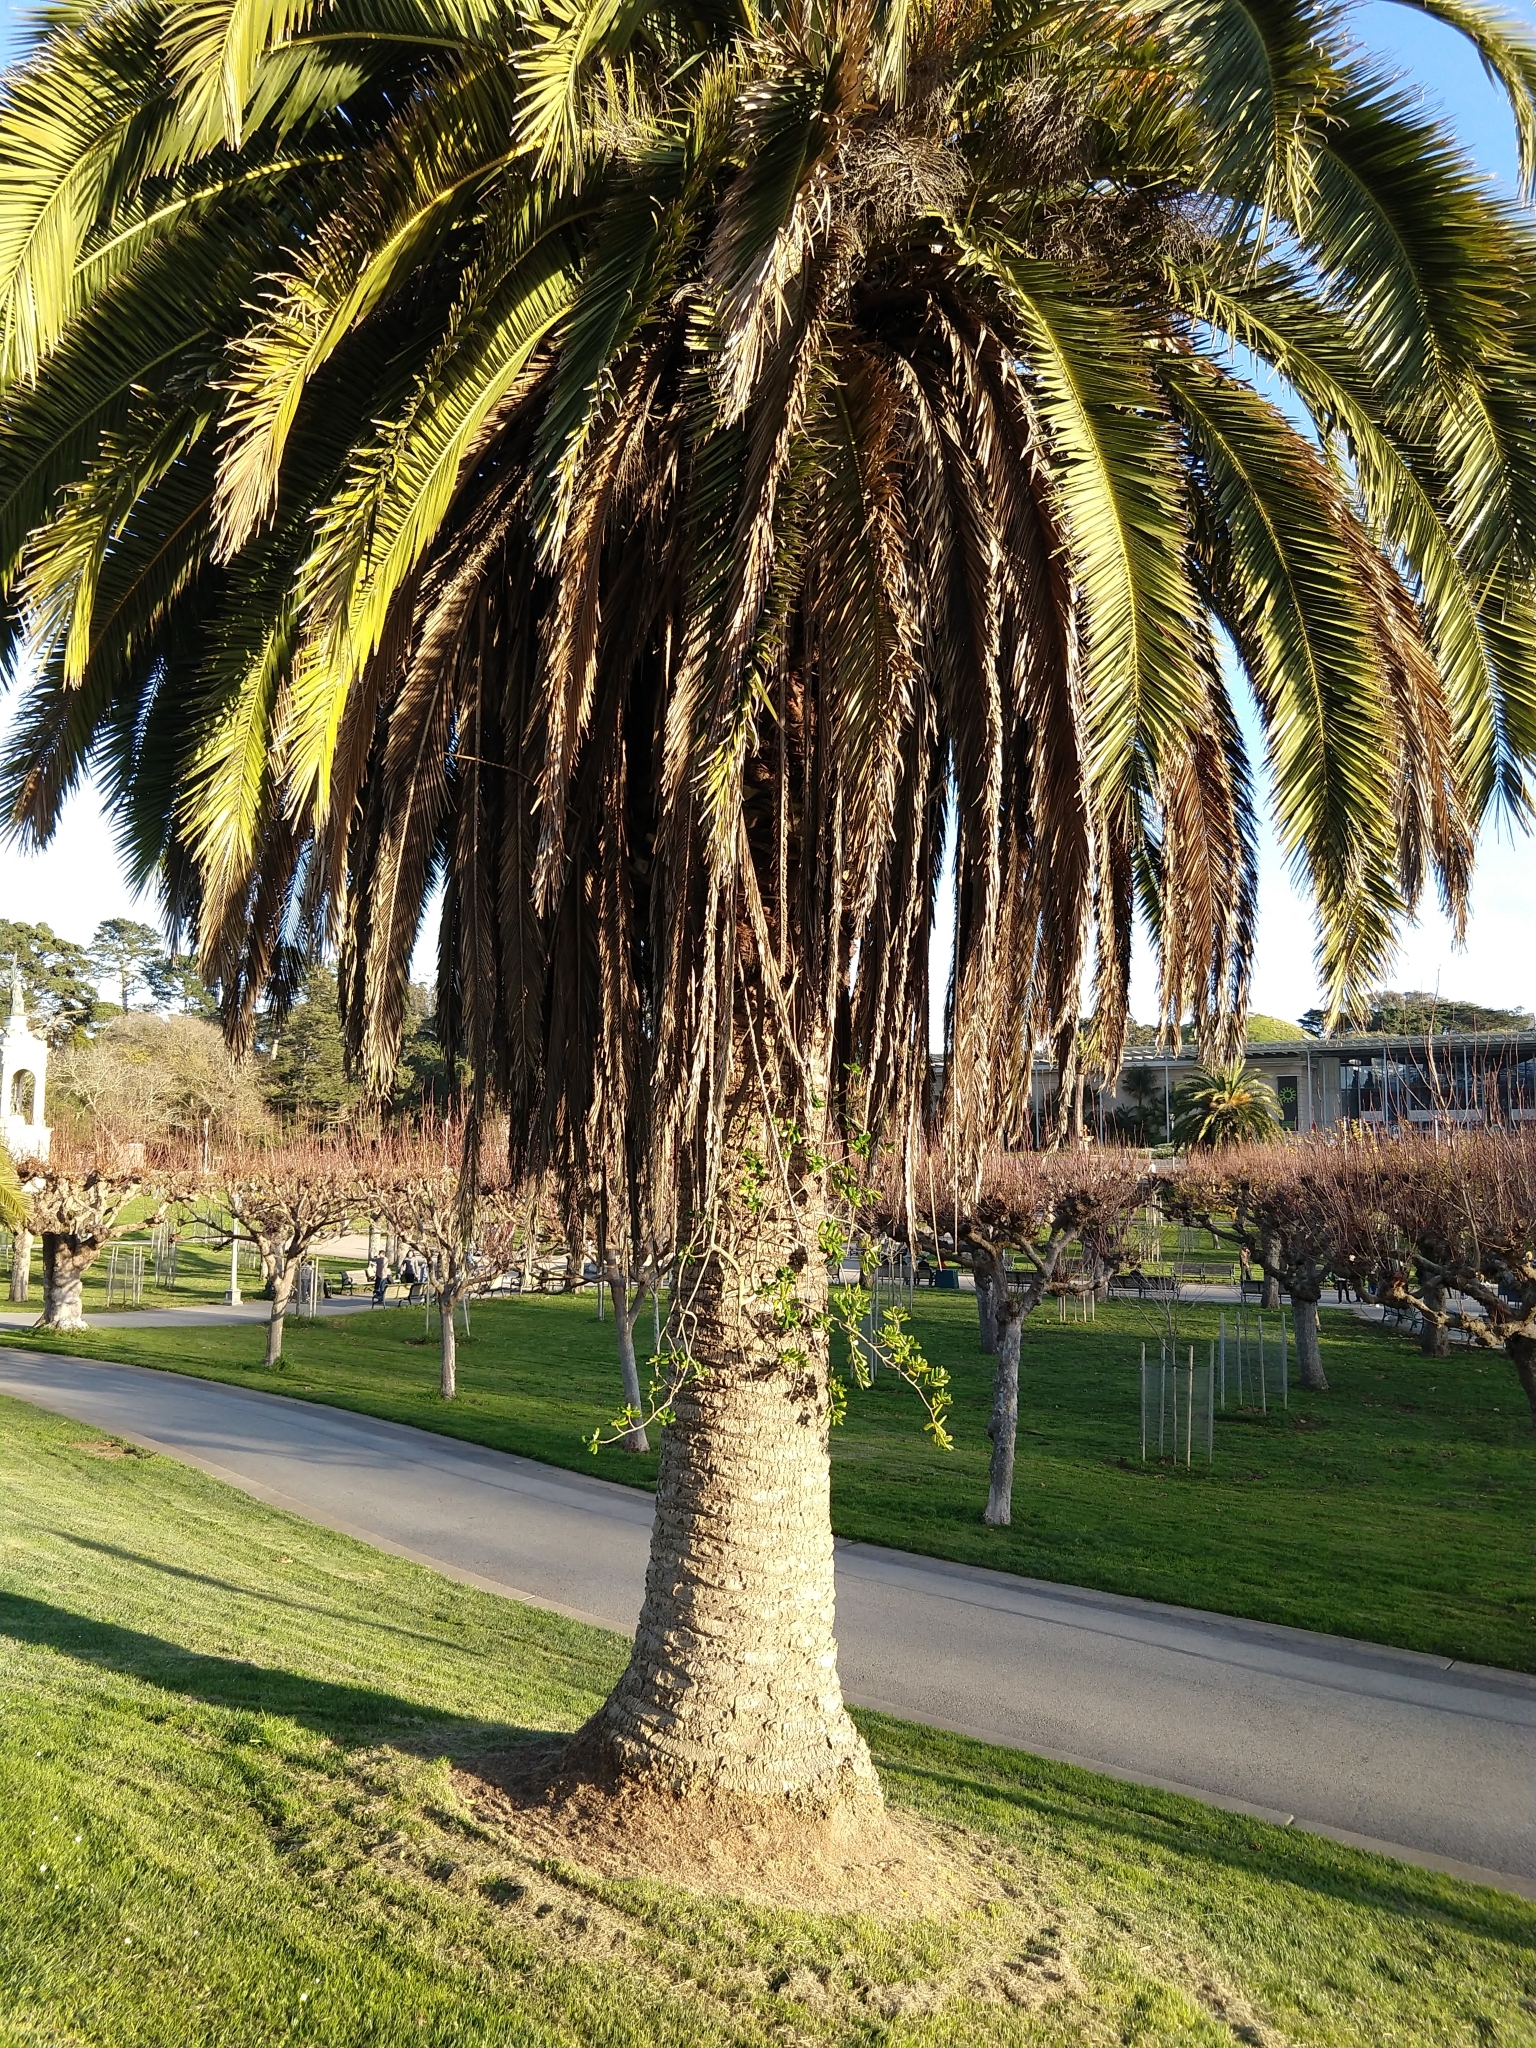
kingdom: Plantae
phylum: Tracheophyta
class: Magnoliopsida
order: Gentianales
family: Rubiaceae
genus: Coprosma
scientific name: Coprosma repens
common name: Tree bedstraw
